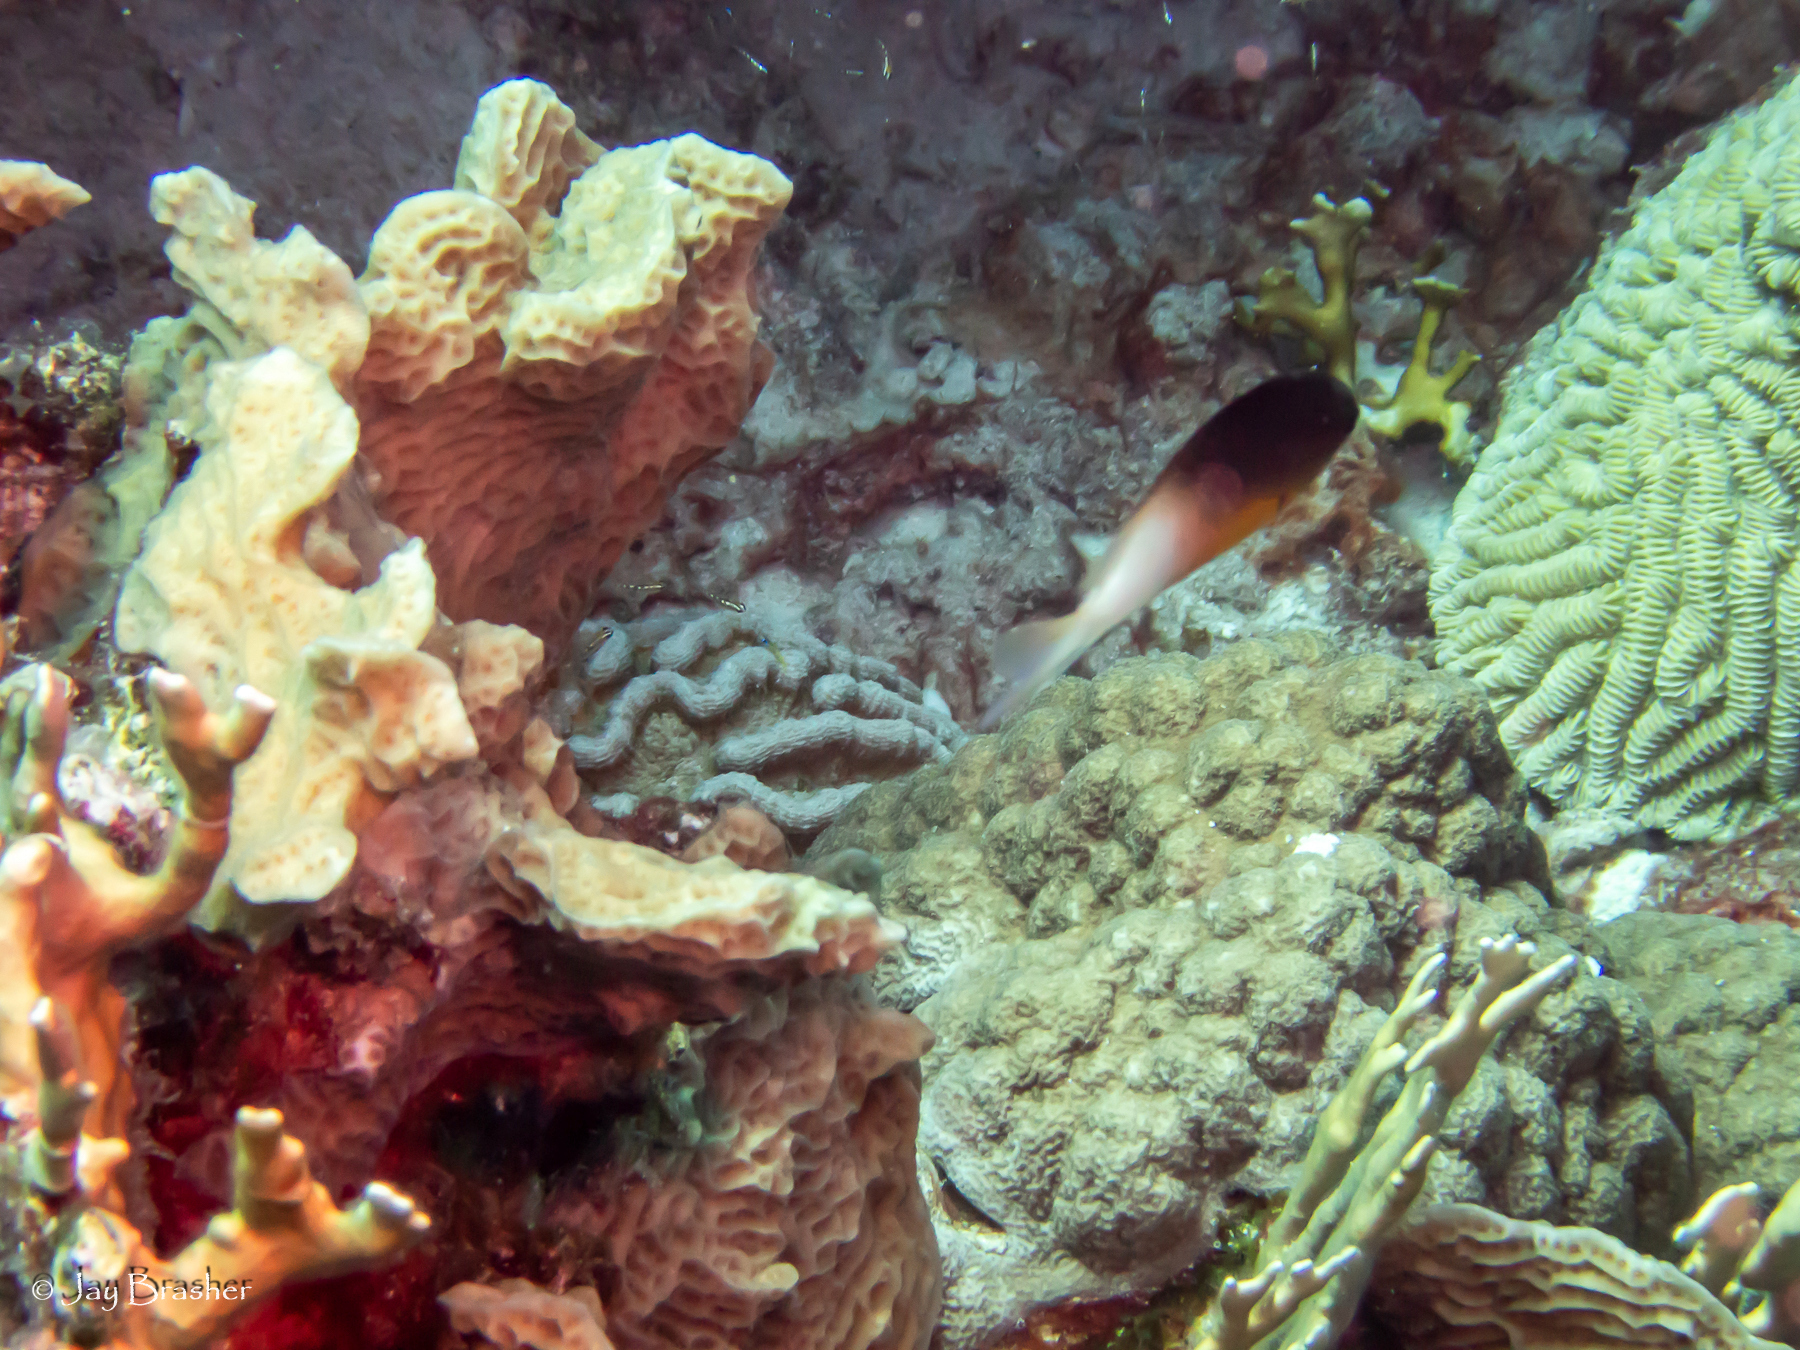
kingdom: Animalia
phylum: Cnidaria
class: Anthozoa
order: Scleractinia
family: Poritidae
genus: Porites
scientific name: Porites astreoides
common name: Mustard hill coral
